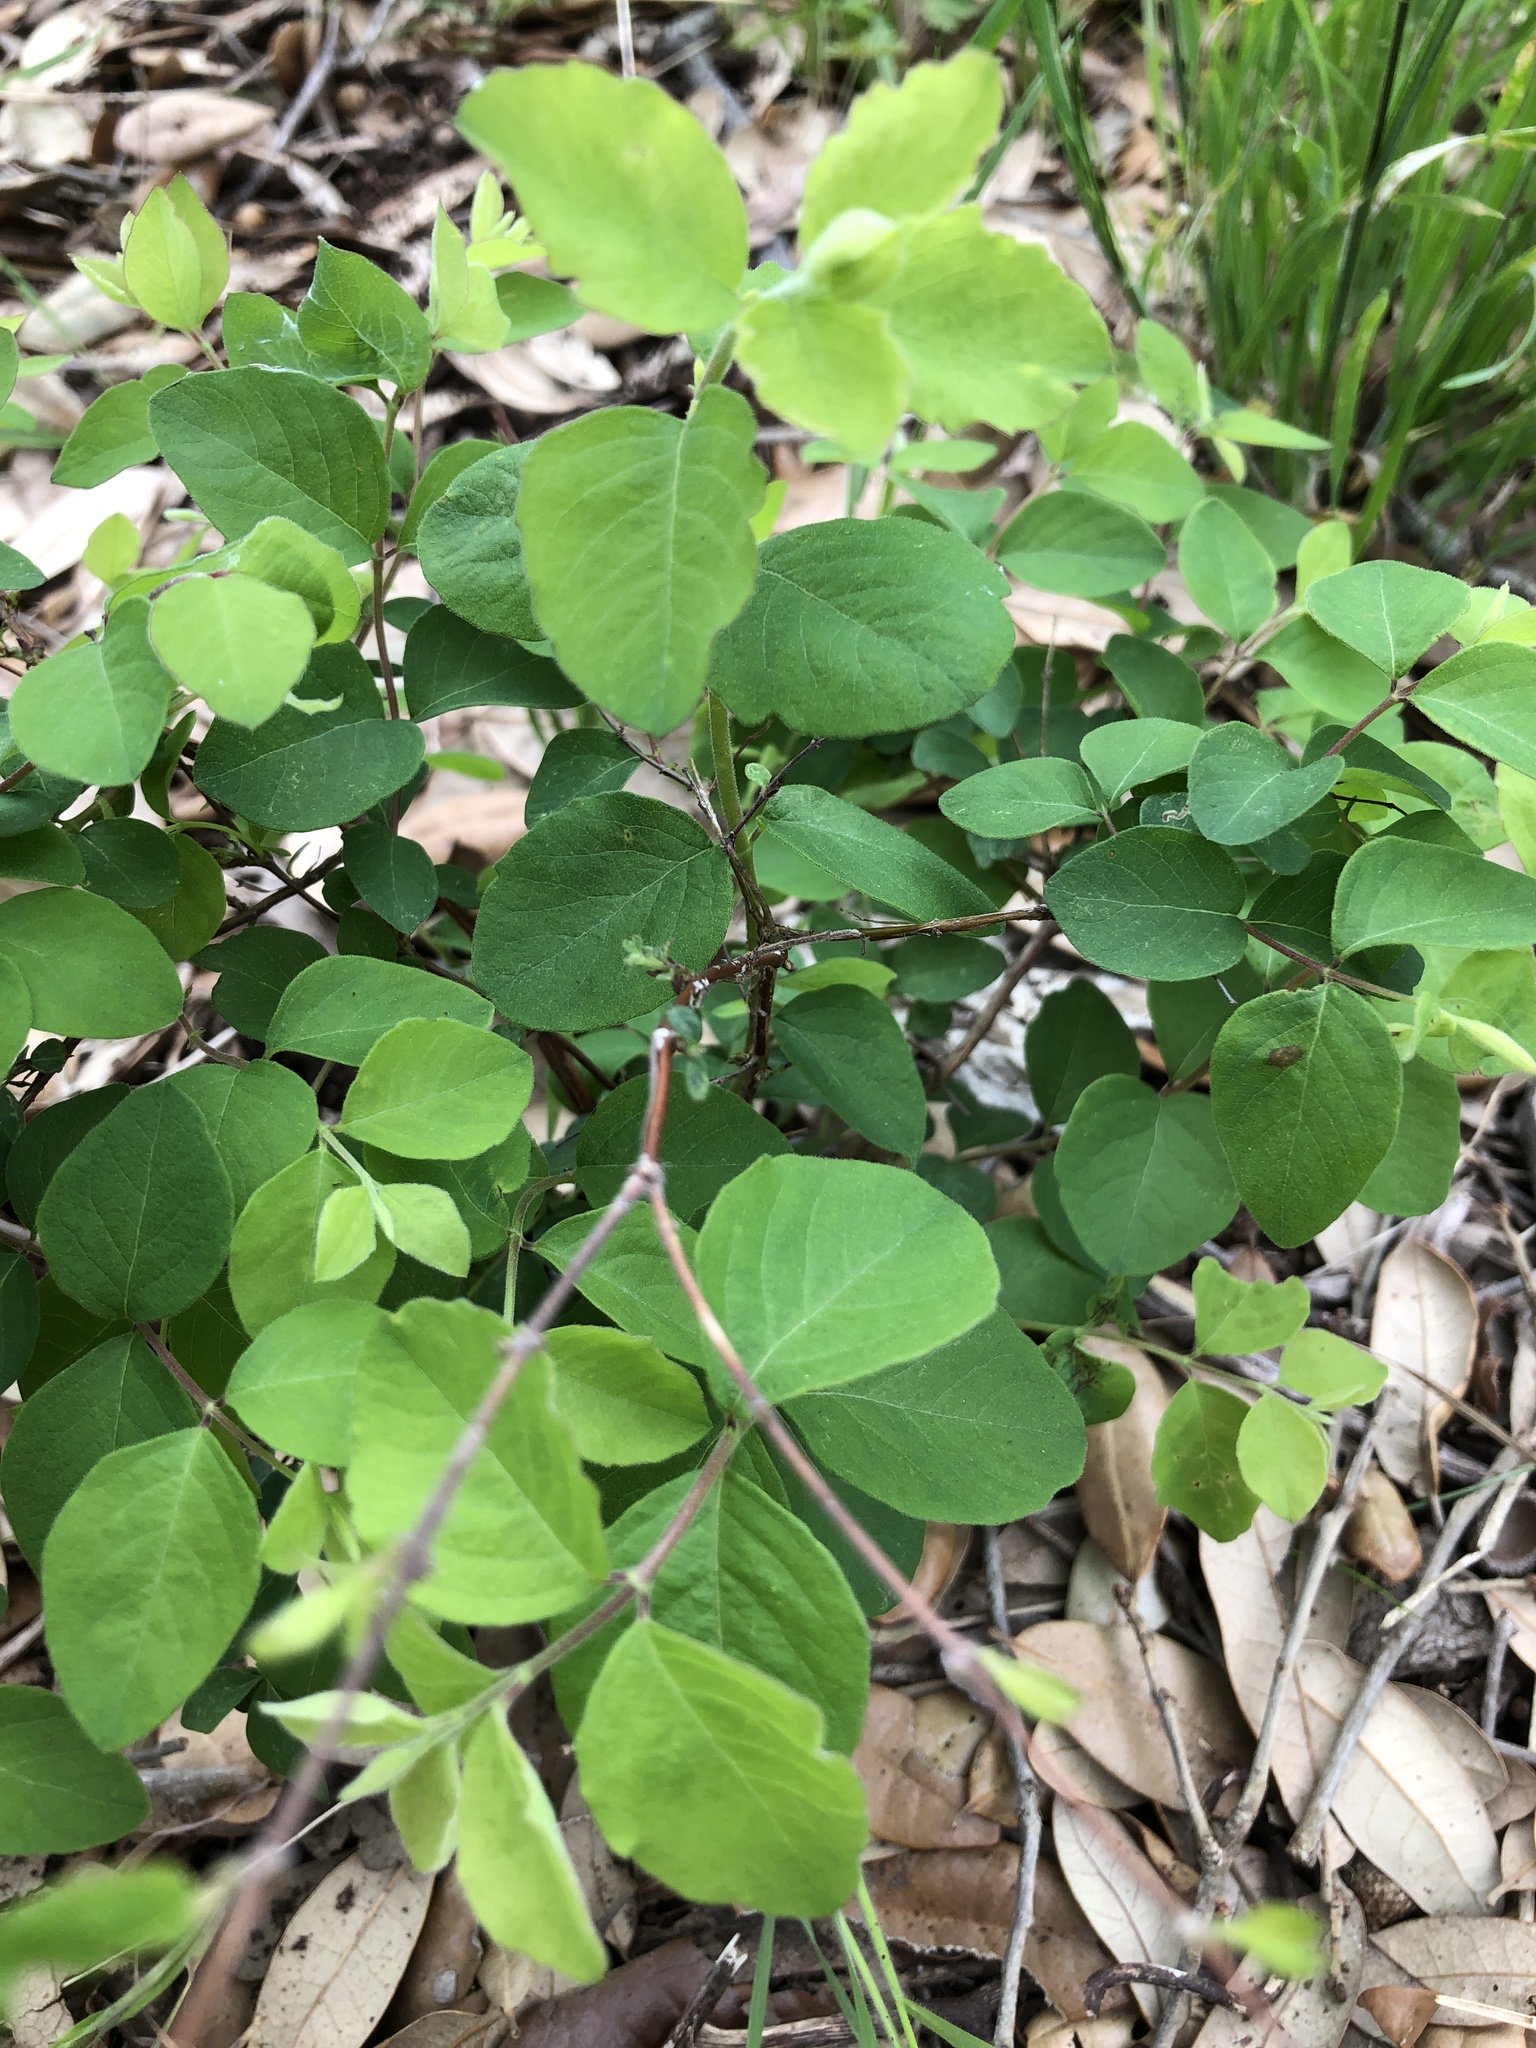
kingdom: Plantae
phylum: Tracheophyta
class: Magnoliopsida
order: Dipsacales
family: Caprifoliaceae
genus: Symphoricarpos
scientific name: Symphoricarpos orbiculatus
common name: Coralberry
